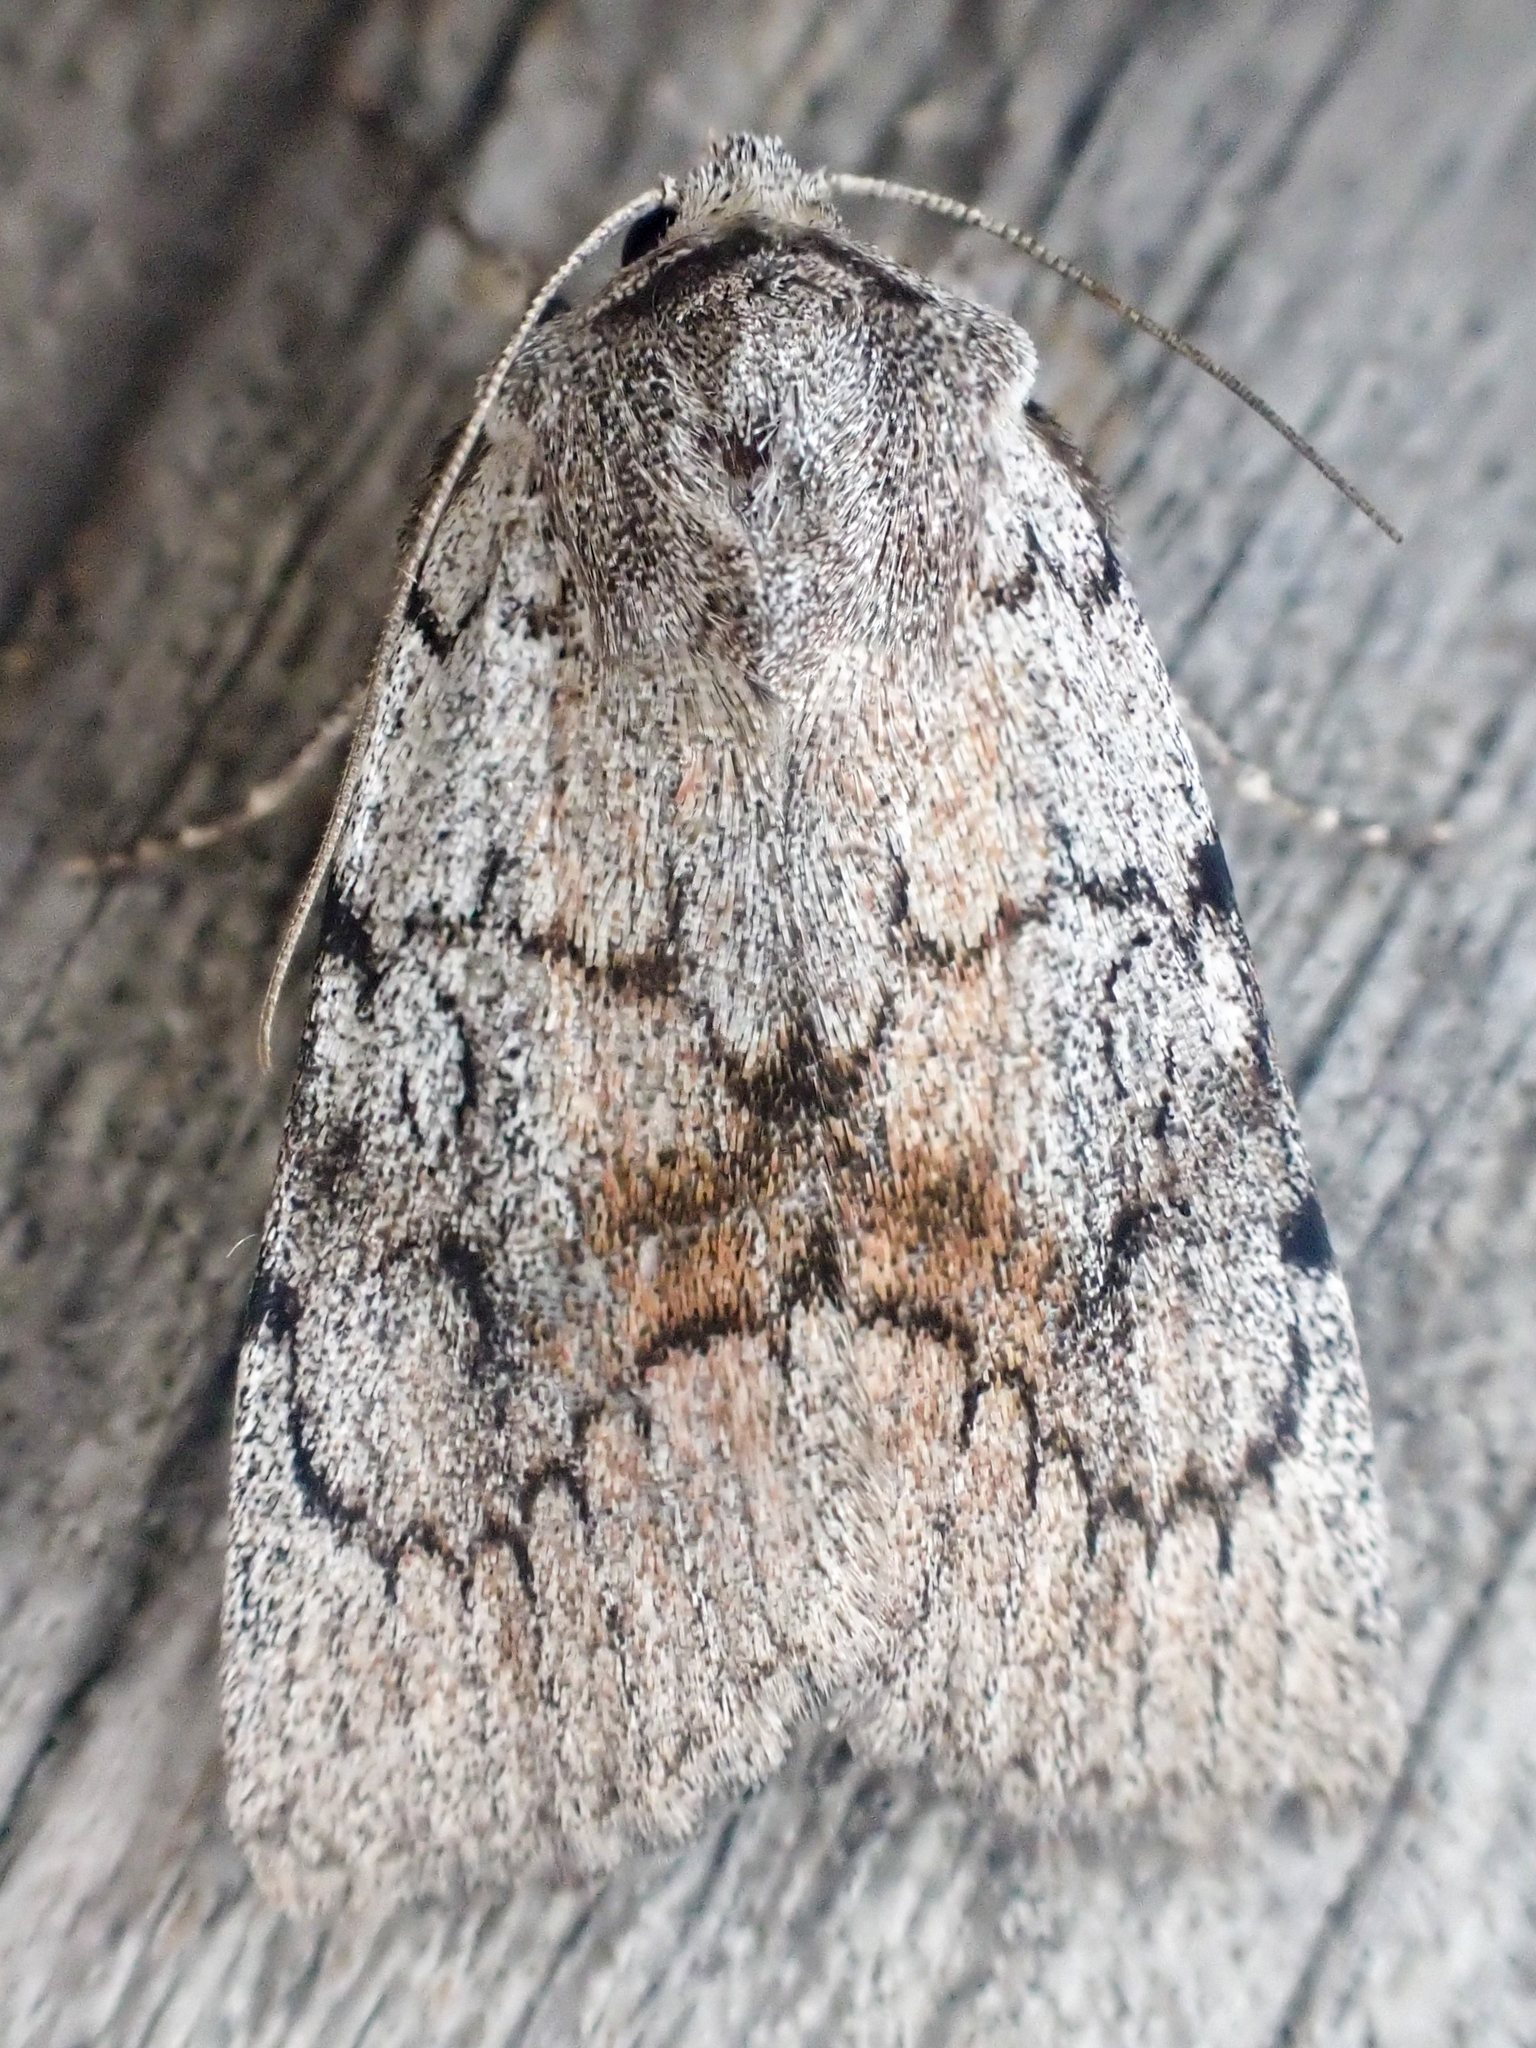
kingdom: Animalia
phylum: Arthropoda
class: Insecta
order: Lepidoptera
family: Noctuidae
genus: Setagrotis
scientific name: Setagrotis pallidicollis
